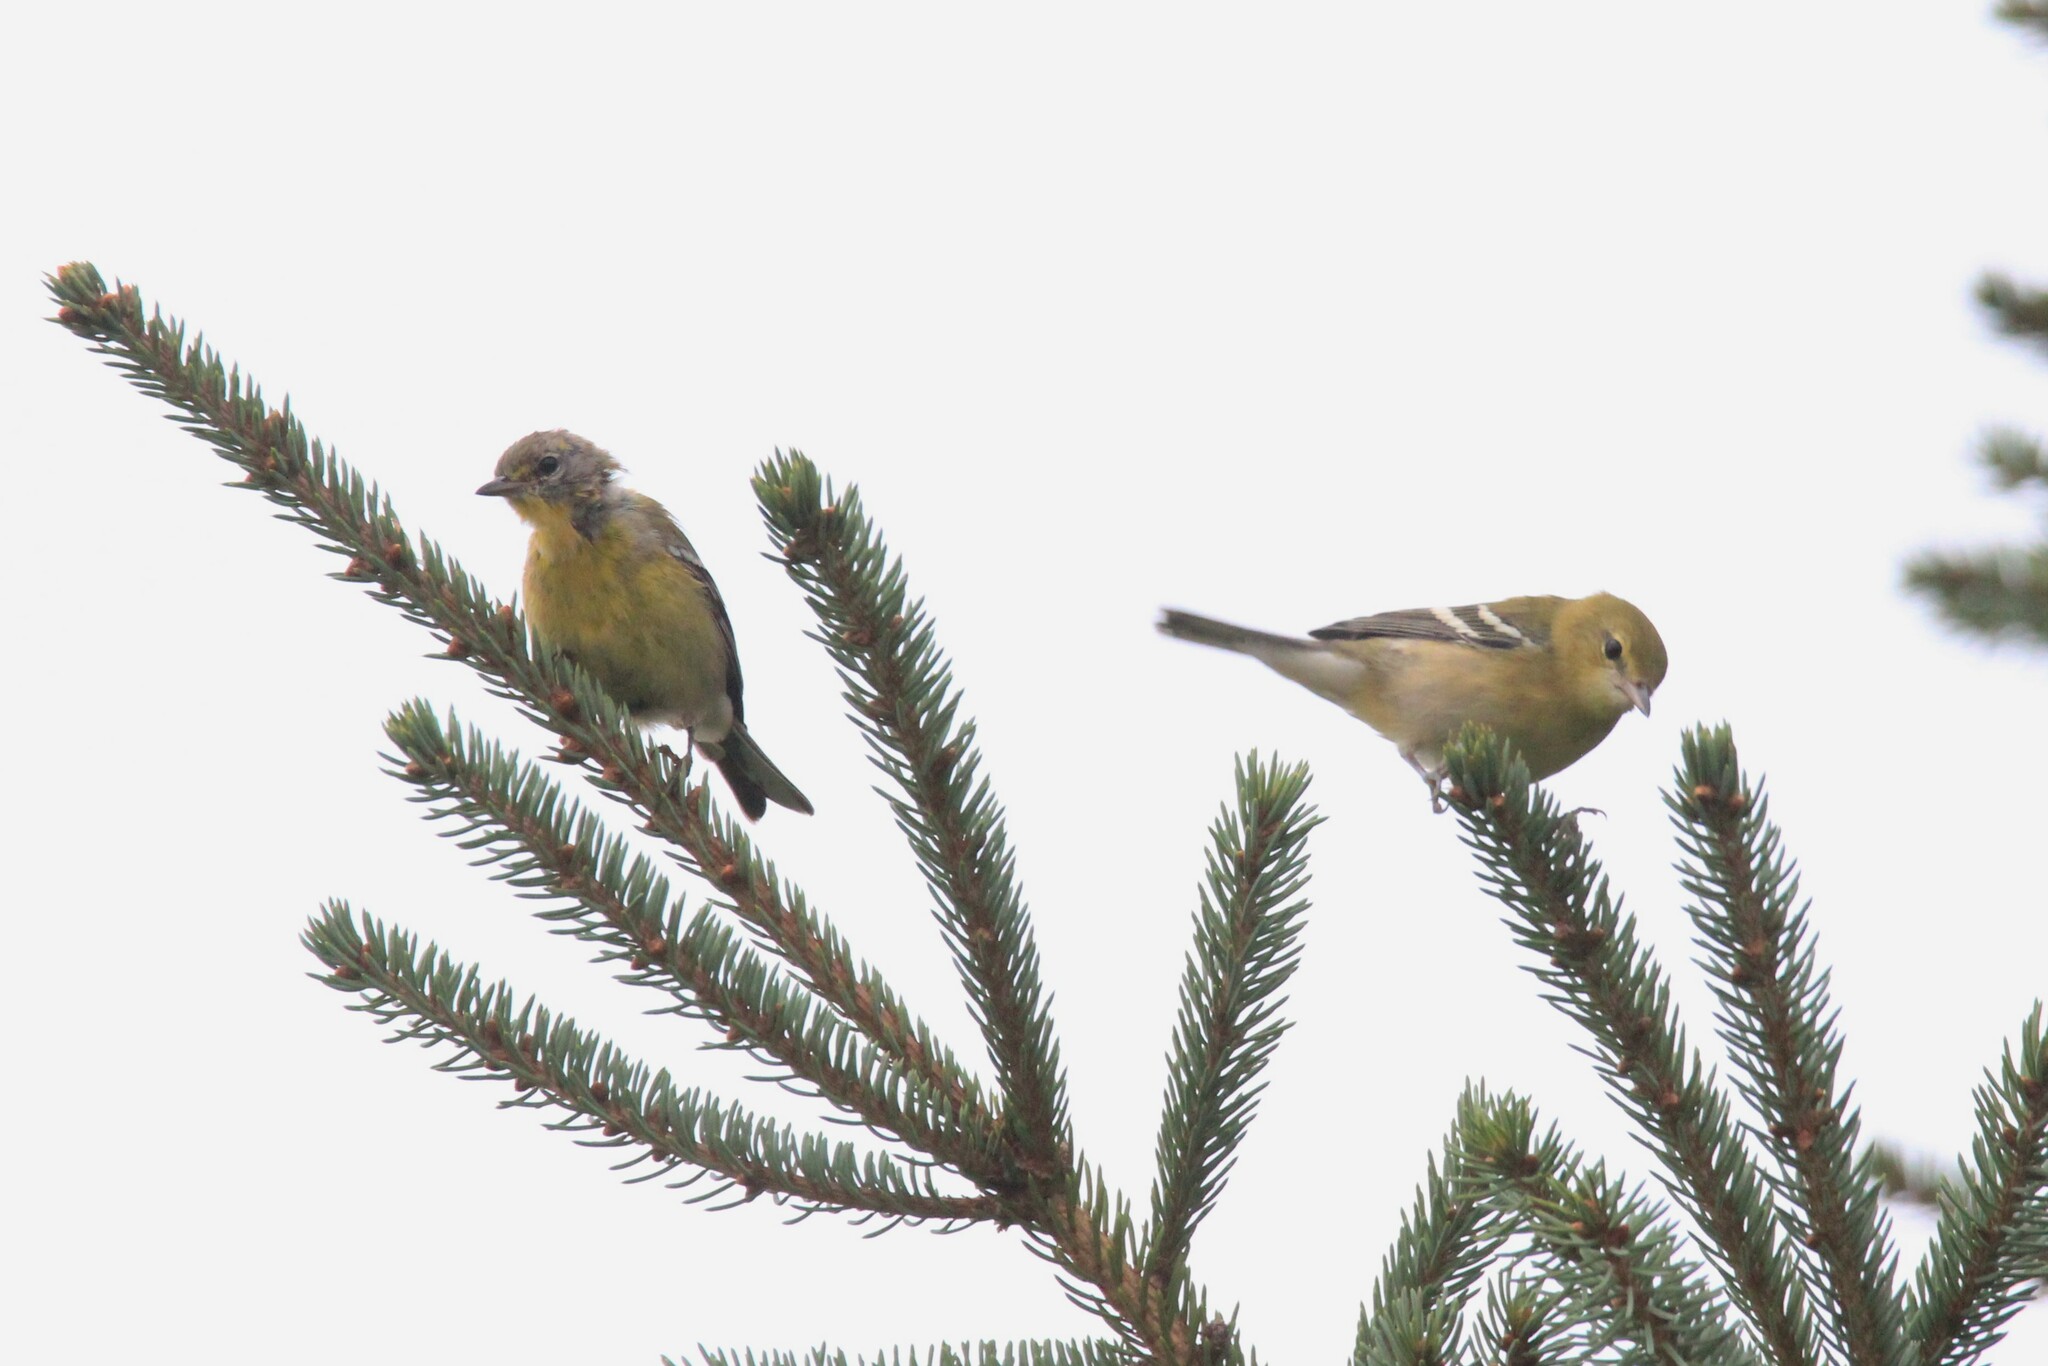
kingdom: Animalia
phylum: Chordata
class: Aves
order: Passeriformes
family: Parulidae
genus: Setophaga
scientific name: Setophaga castanea
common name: Bay-breasted warbler
